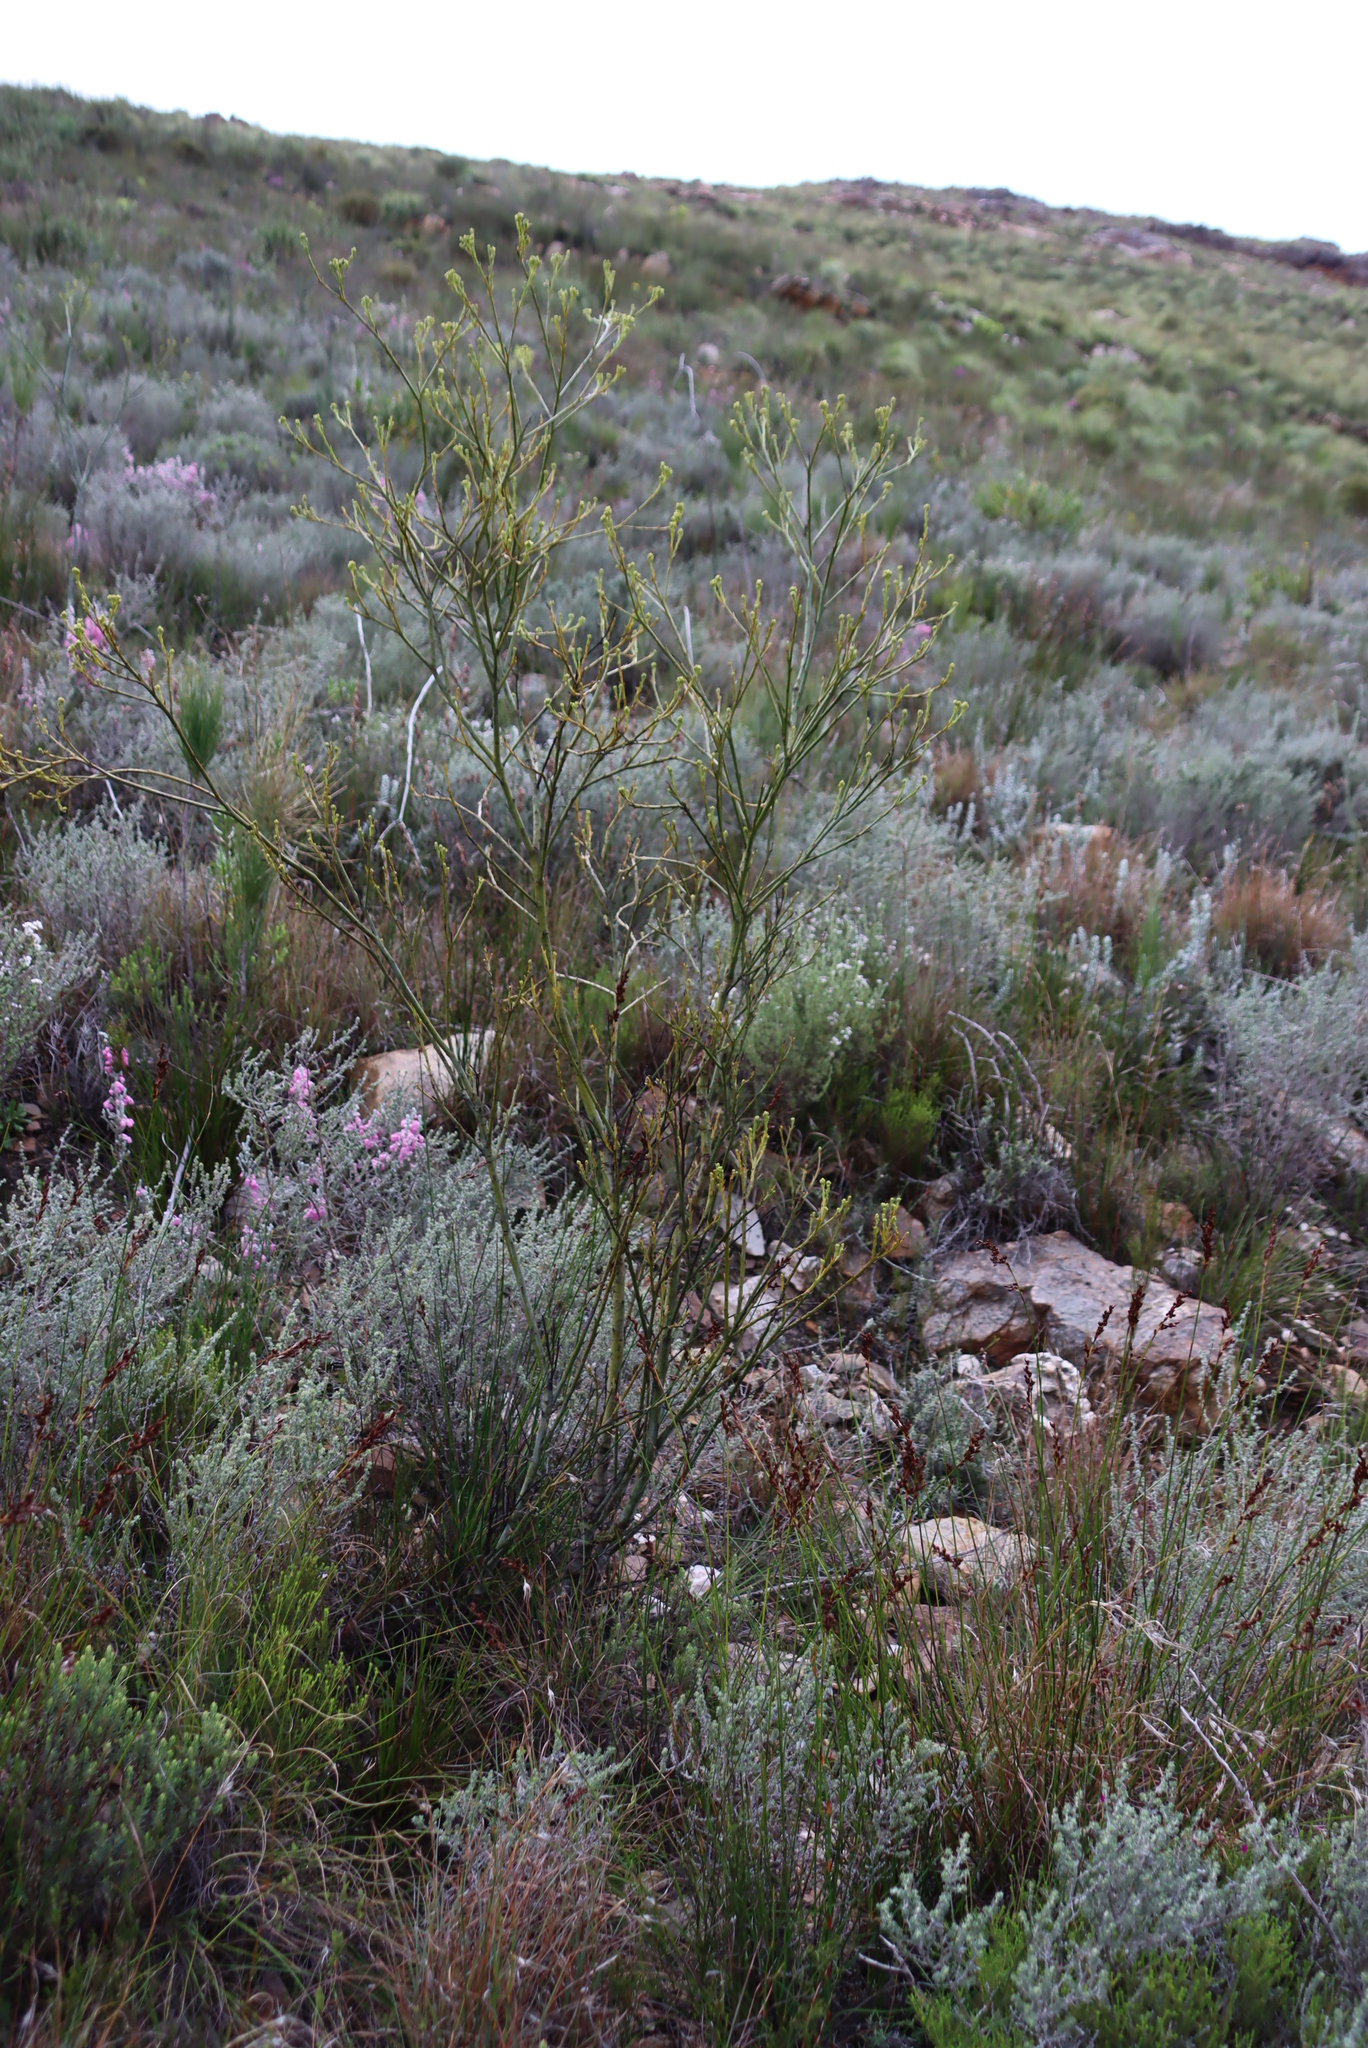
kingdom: Plantae
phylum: Tracheophyta
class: Magnoliopsida
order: Santalales
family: Thesiaceae
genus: Thesium
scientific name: Thesium strictum
